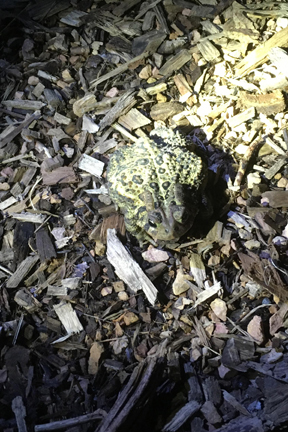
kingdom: Animalia
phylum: Chordata
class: Amphibia
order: Anura
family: Bufonidae
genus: Anaxyrus
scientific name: Anaxyrus americanus
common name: American toad
